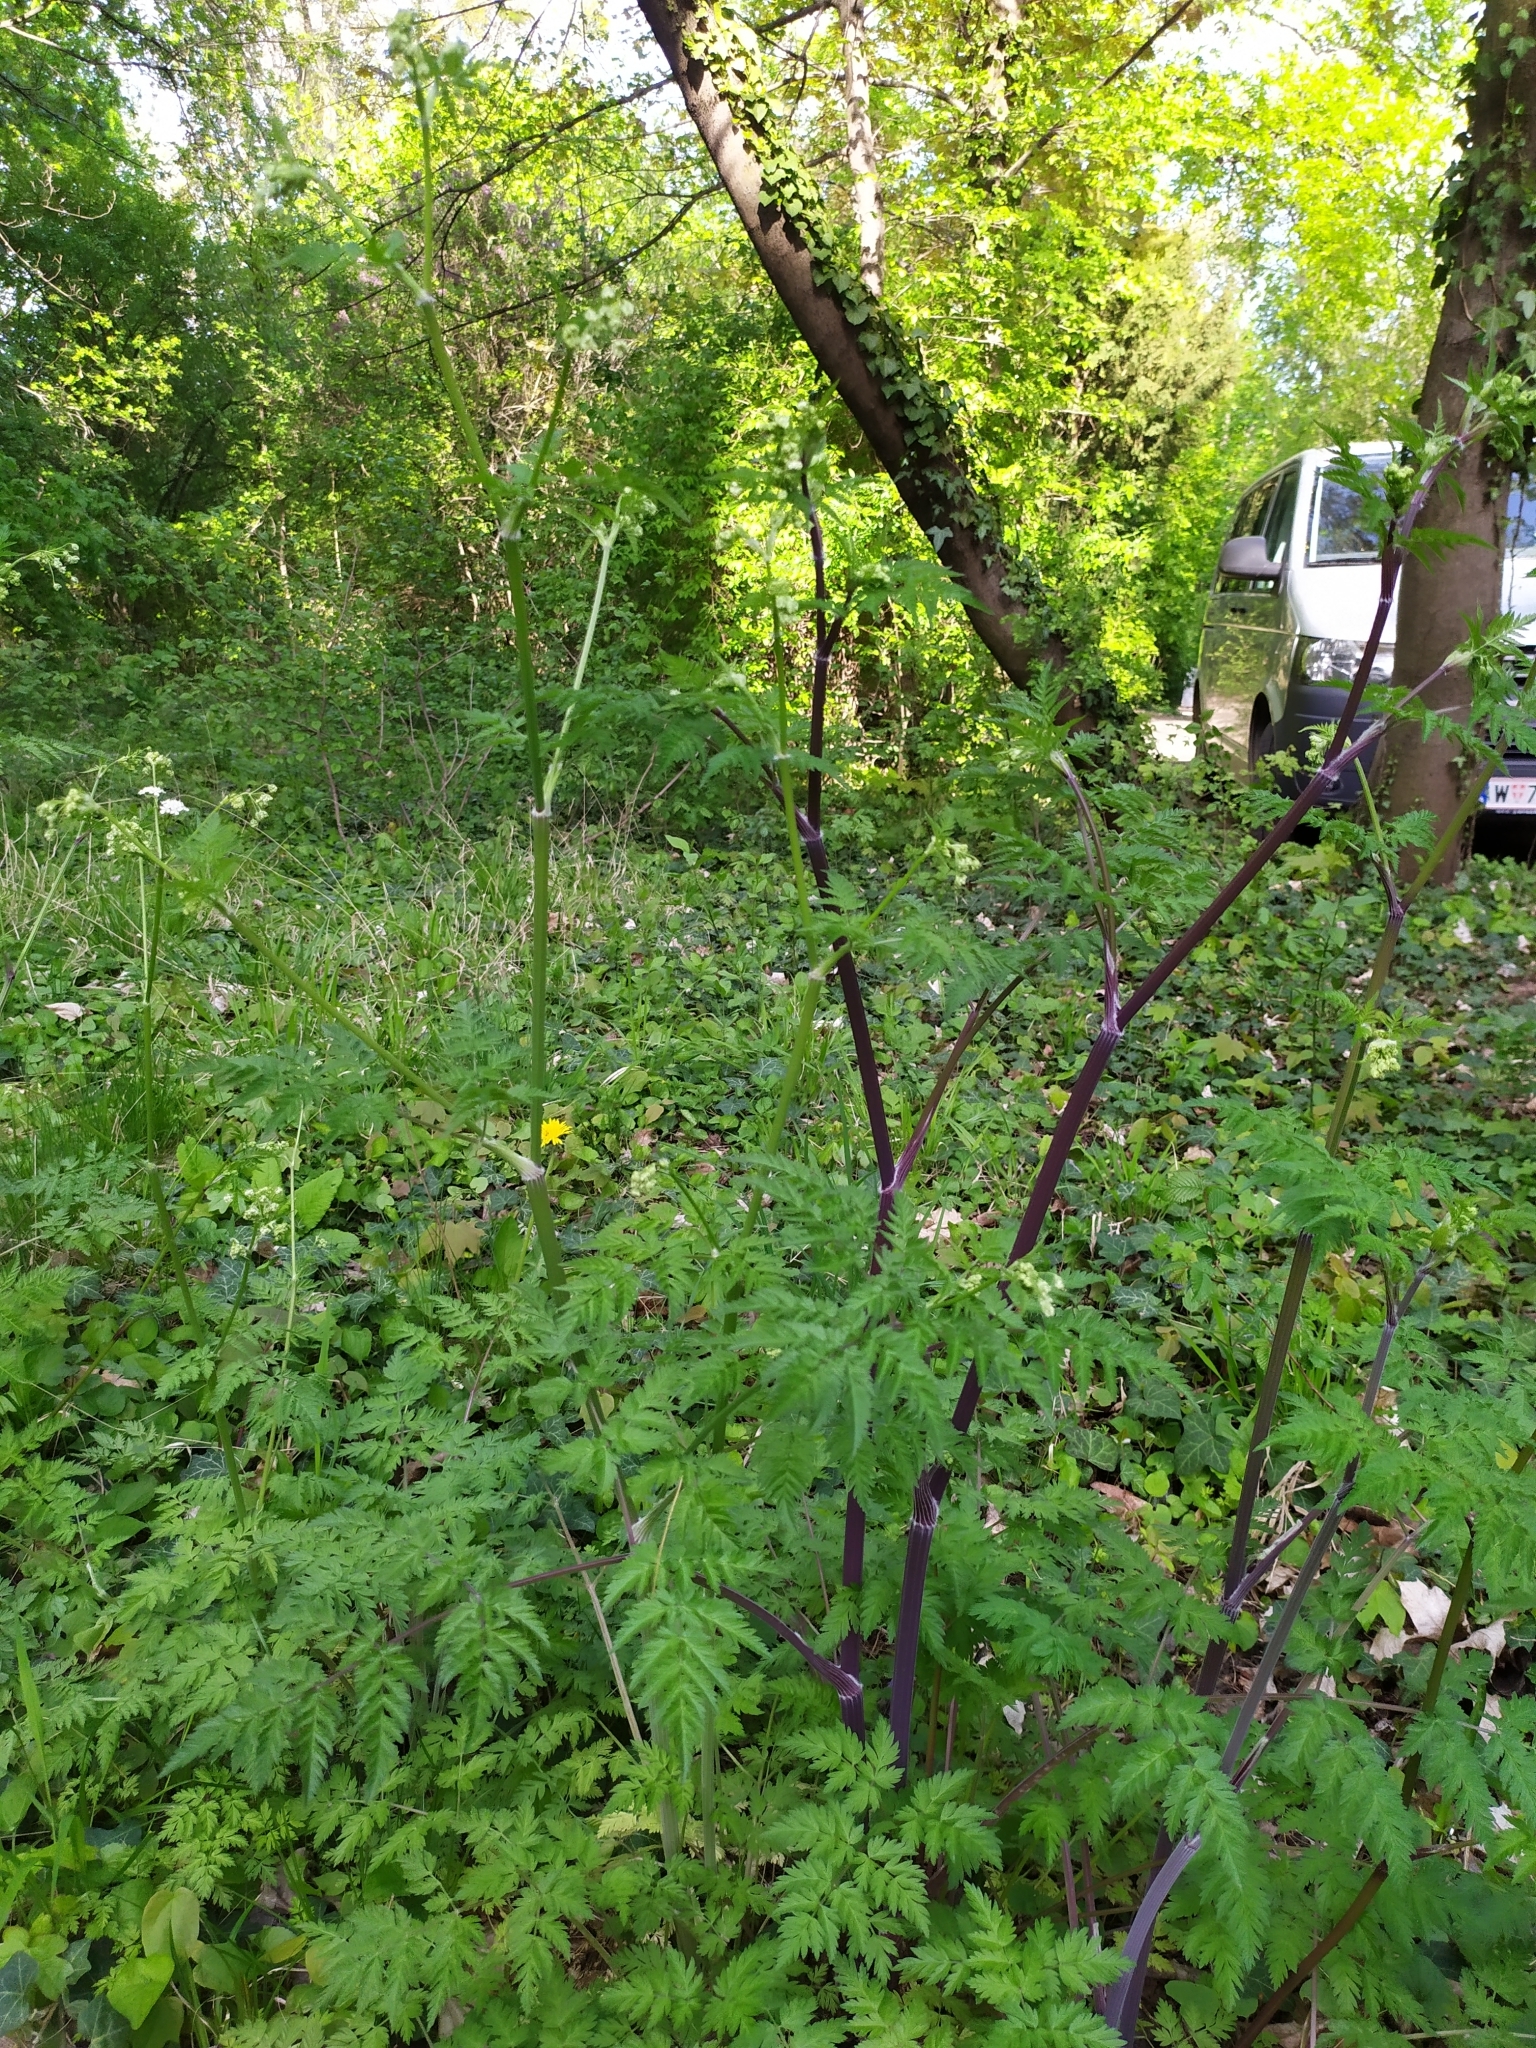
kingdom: Plantae
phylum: Tracheophyta
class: Magnoliopsida
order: Apiales
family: Apiaceae
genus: Anthriscus
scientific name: Anthriscus sylvestris
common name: Cow parsley
